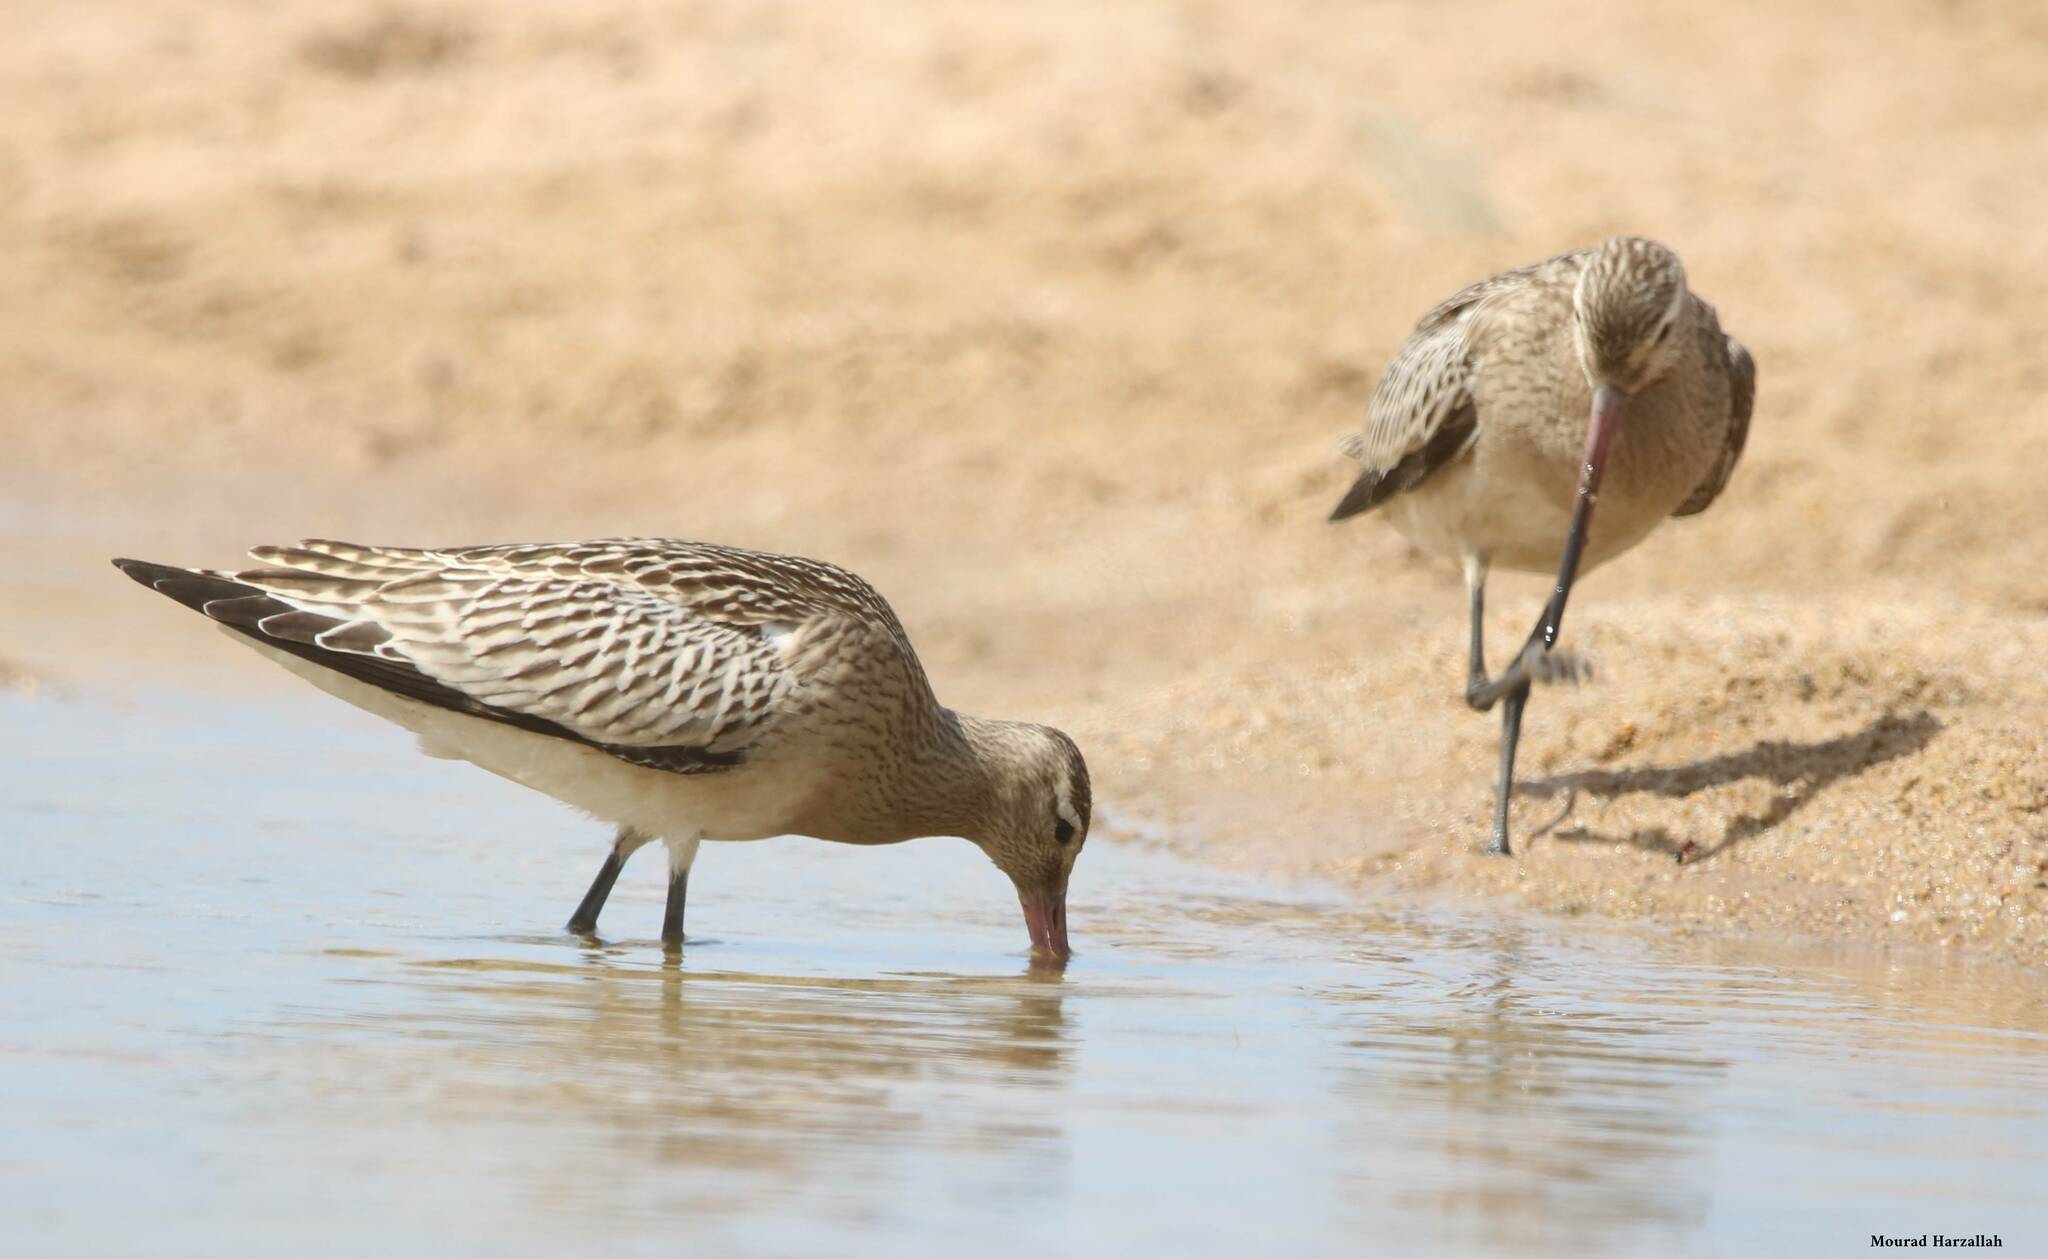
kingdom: Animalia
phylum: Chordata
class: Aves
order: Charadriiformes
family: Scolopacidae
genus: Limosa
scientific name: Limosa lapponica
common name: Bar-tailed godwit
